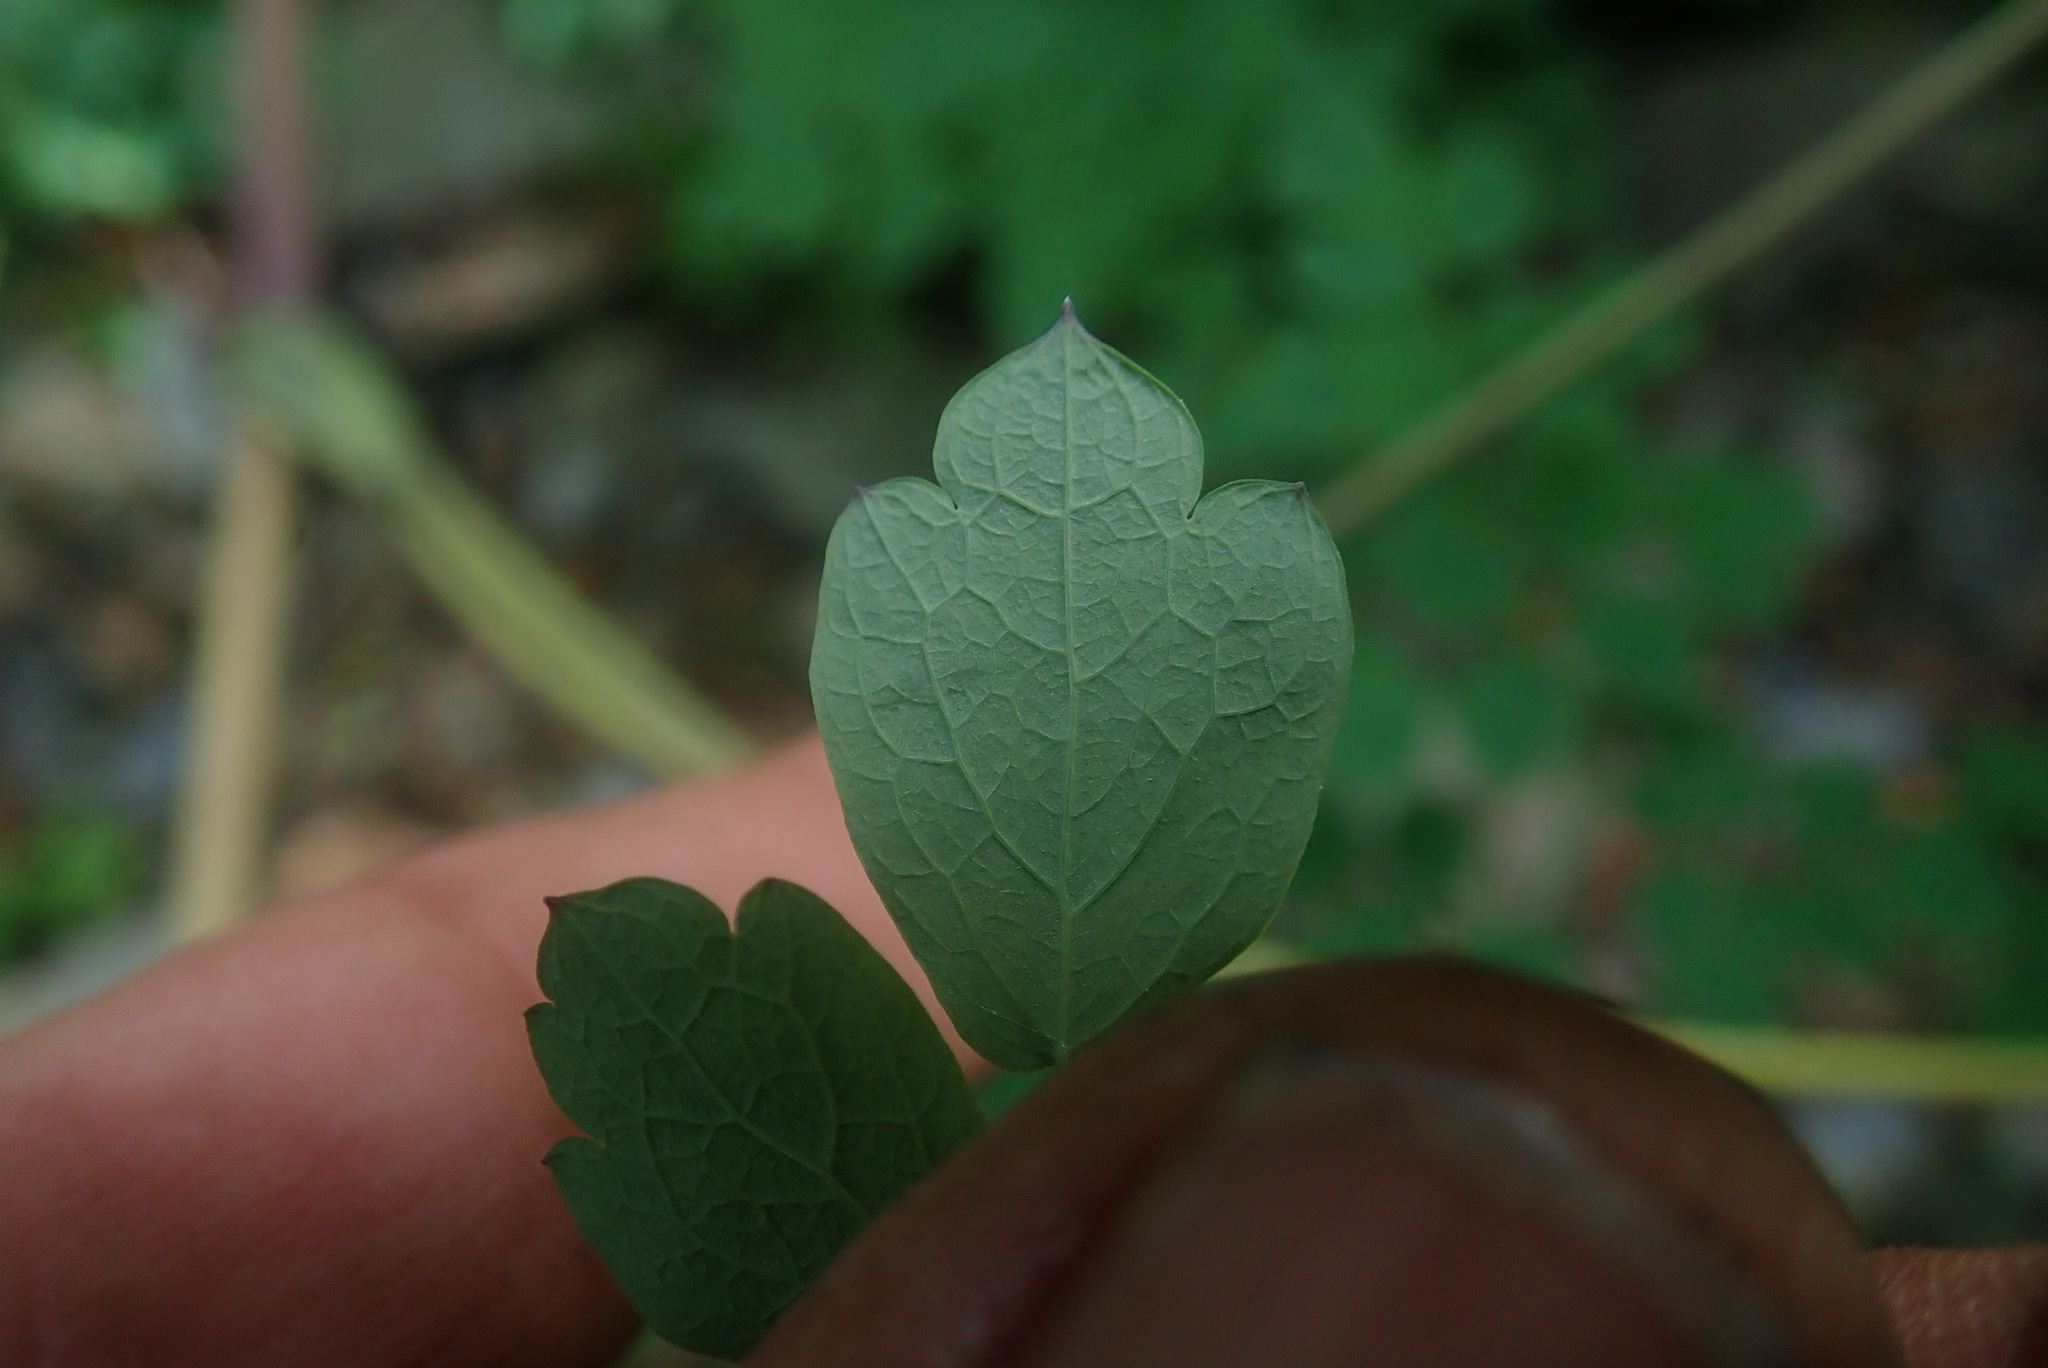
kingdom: Plantae
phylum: Tracheophyta
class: Magnoliopsida
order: Ranunculales
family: Ranunculaceae
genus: Thalictrum
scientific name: Thalictrum rhynchocarpum
